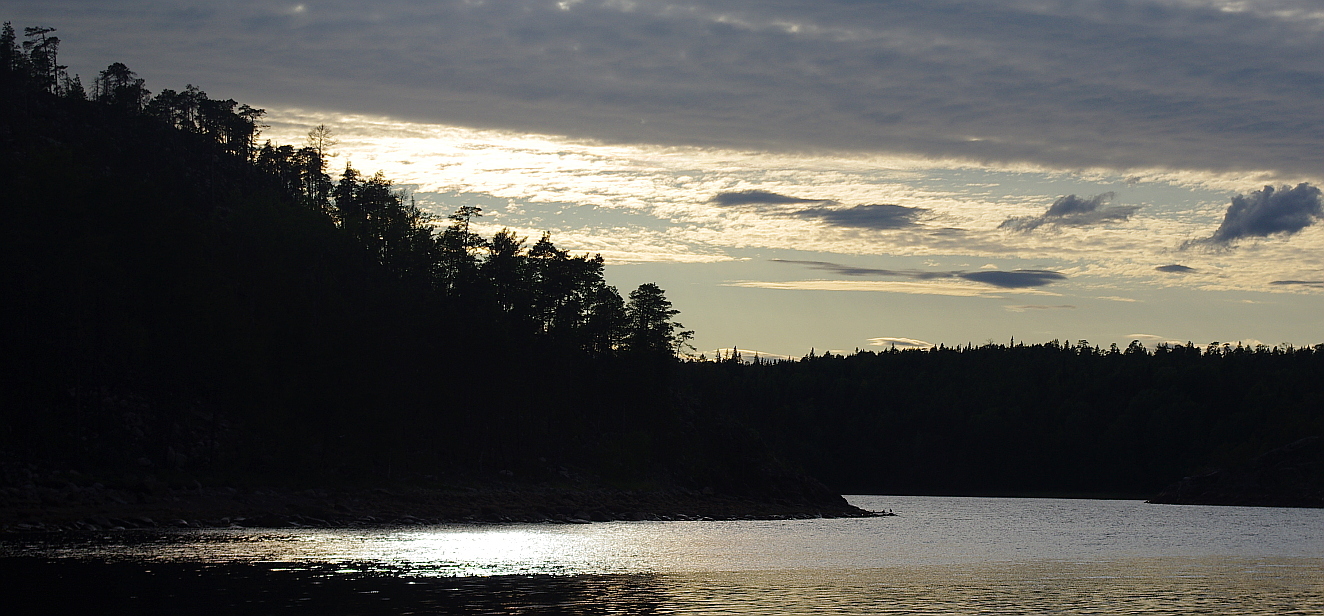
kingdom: Plantae
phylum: Tracheophyta
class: Pinopsida
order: Pinales
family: Pinaceae
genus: Pinus
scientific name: Pinus sylvestris
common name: Scots pine
